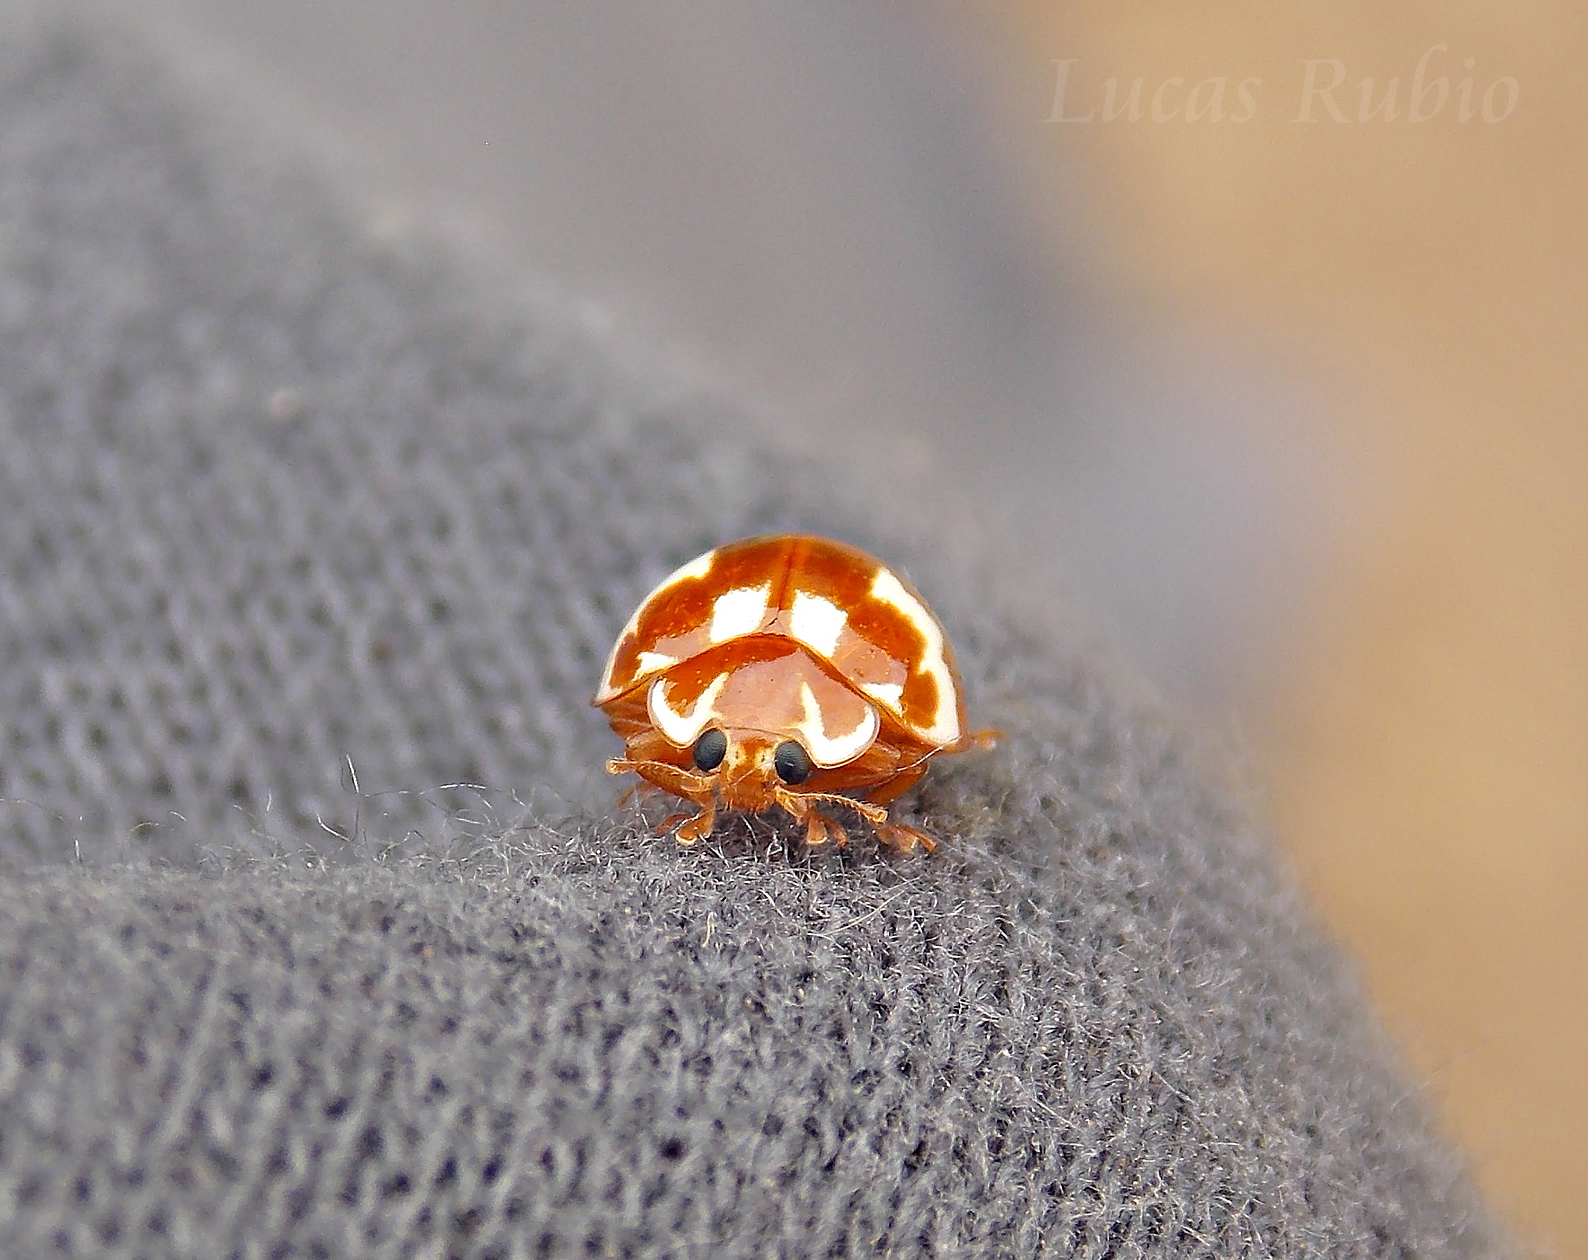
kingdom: Animalia
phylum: Arthropoda
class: Insecta
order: Coleoptera
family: Coccinellidae
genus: Neocalvia
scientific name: Neocalvia
